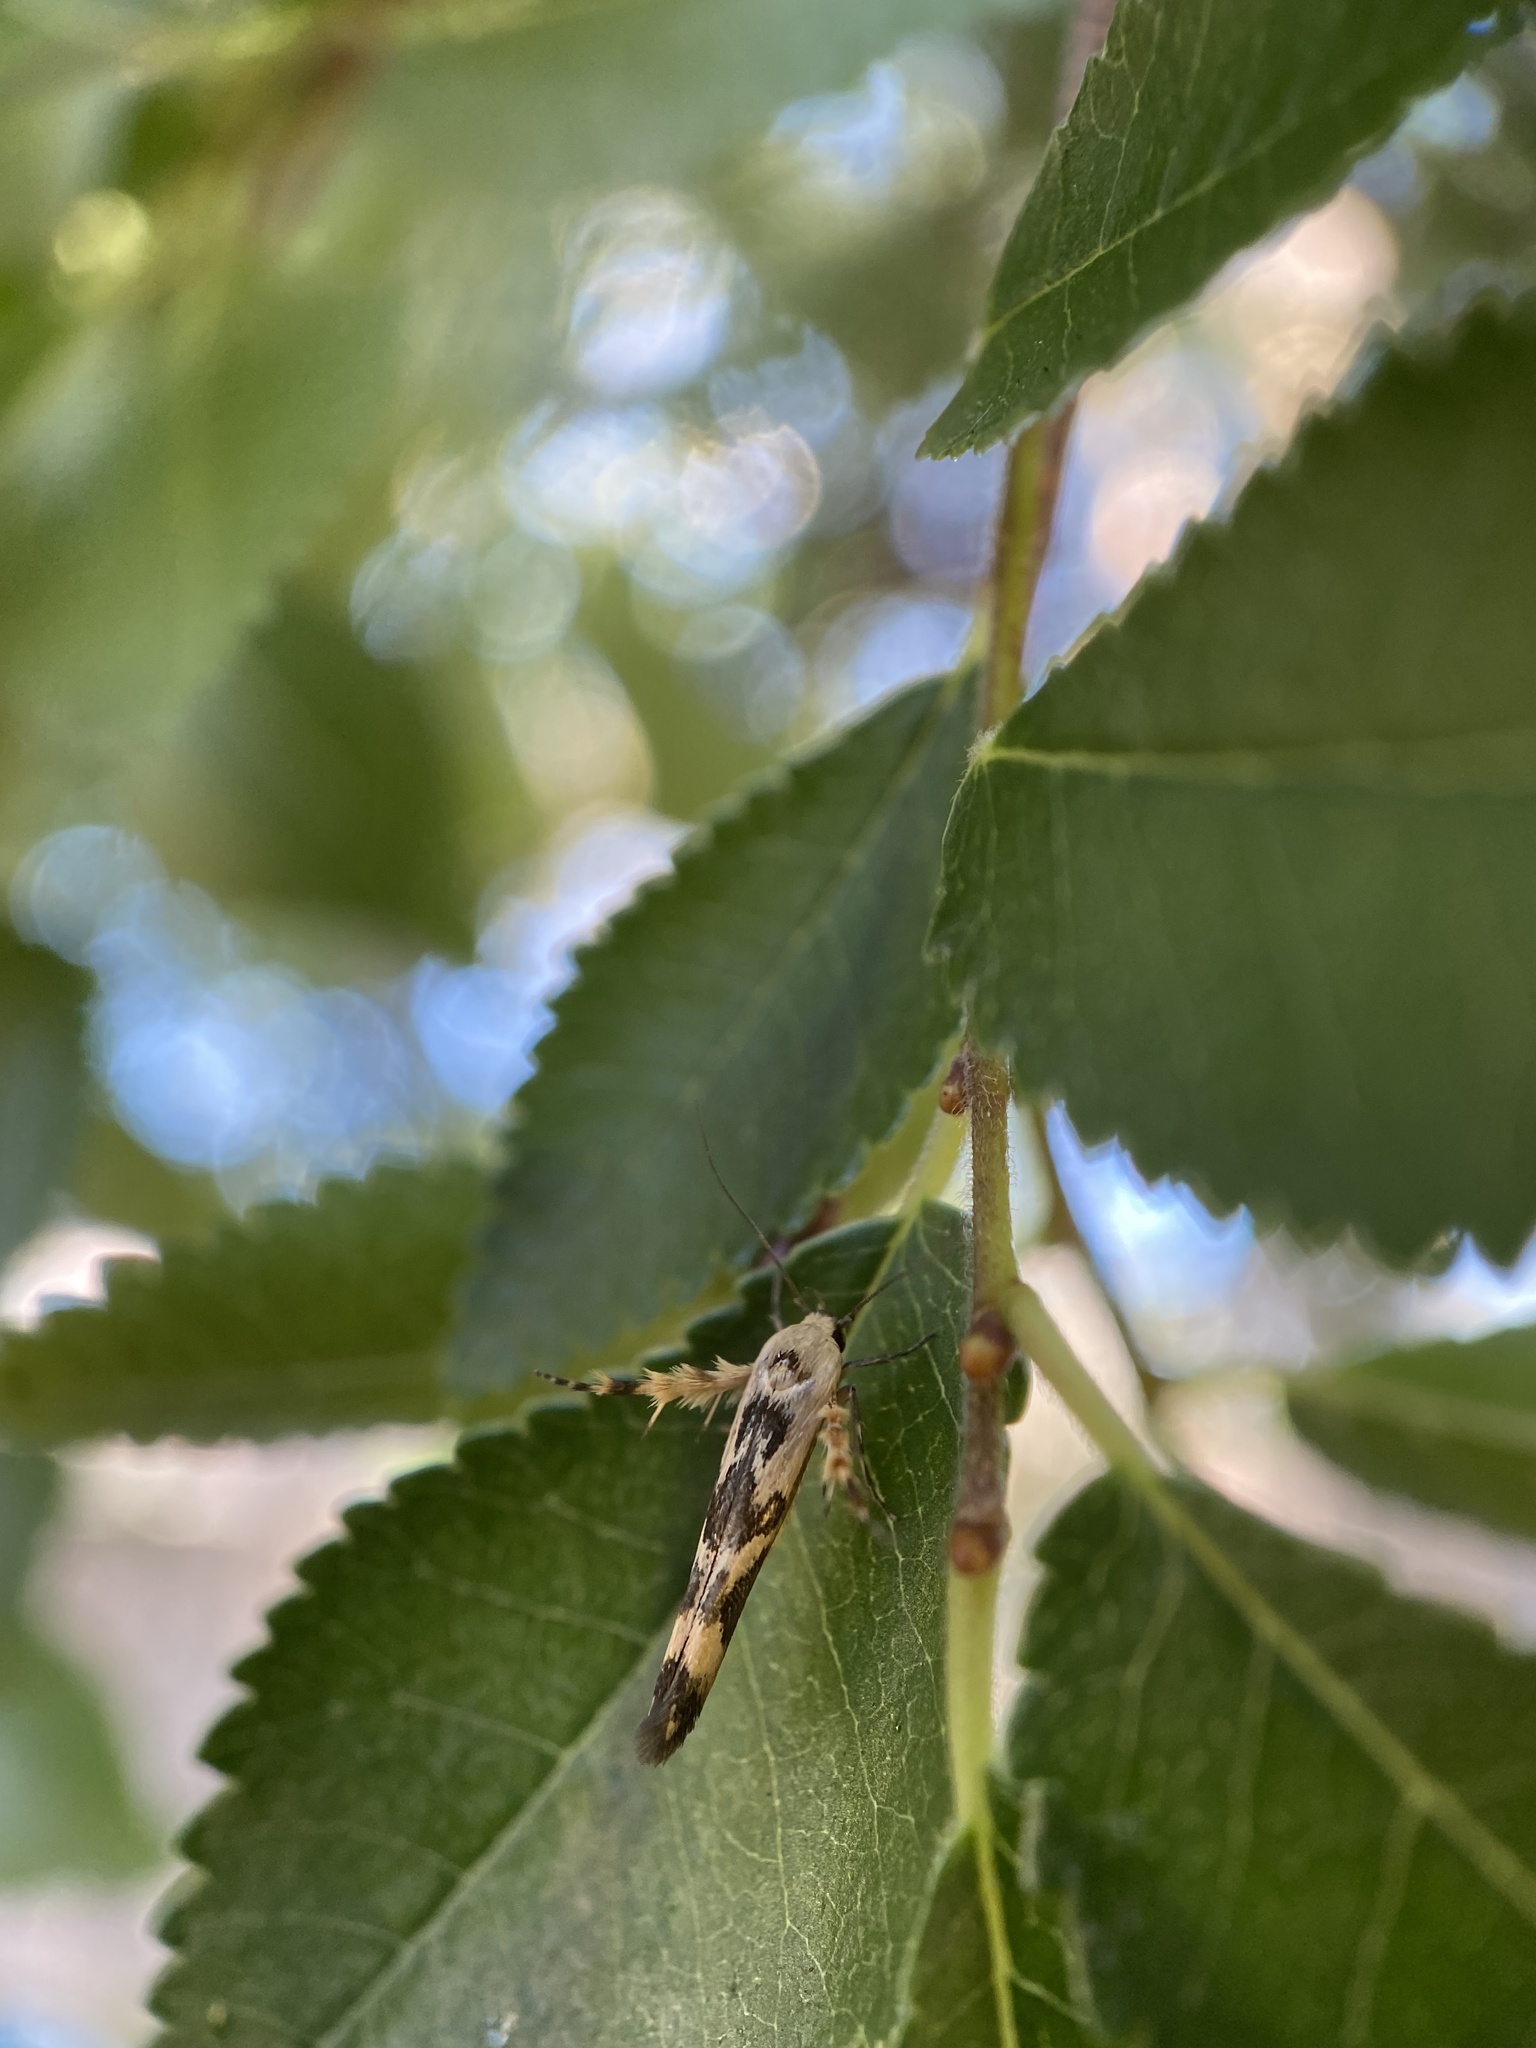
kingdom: Animalia
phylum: Arthropoda
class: Insecta
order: Lepidoptera
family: Stathmopodidae
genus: Stathmopoda
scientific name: Stathmopoda melanochra
